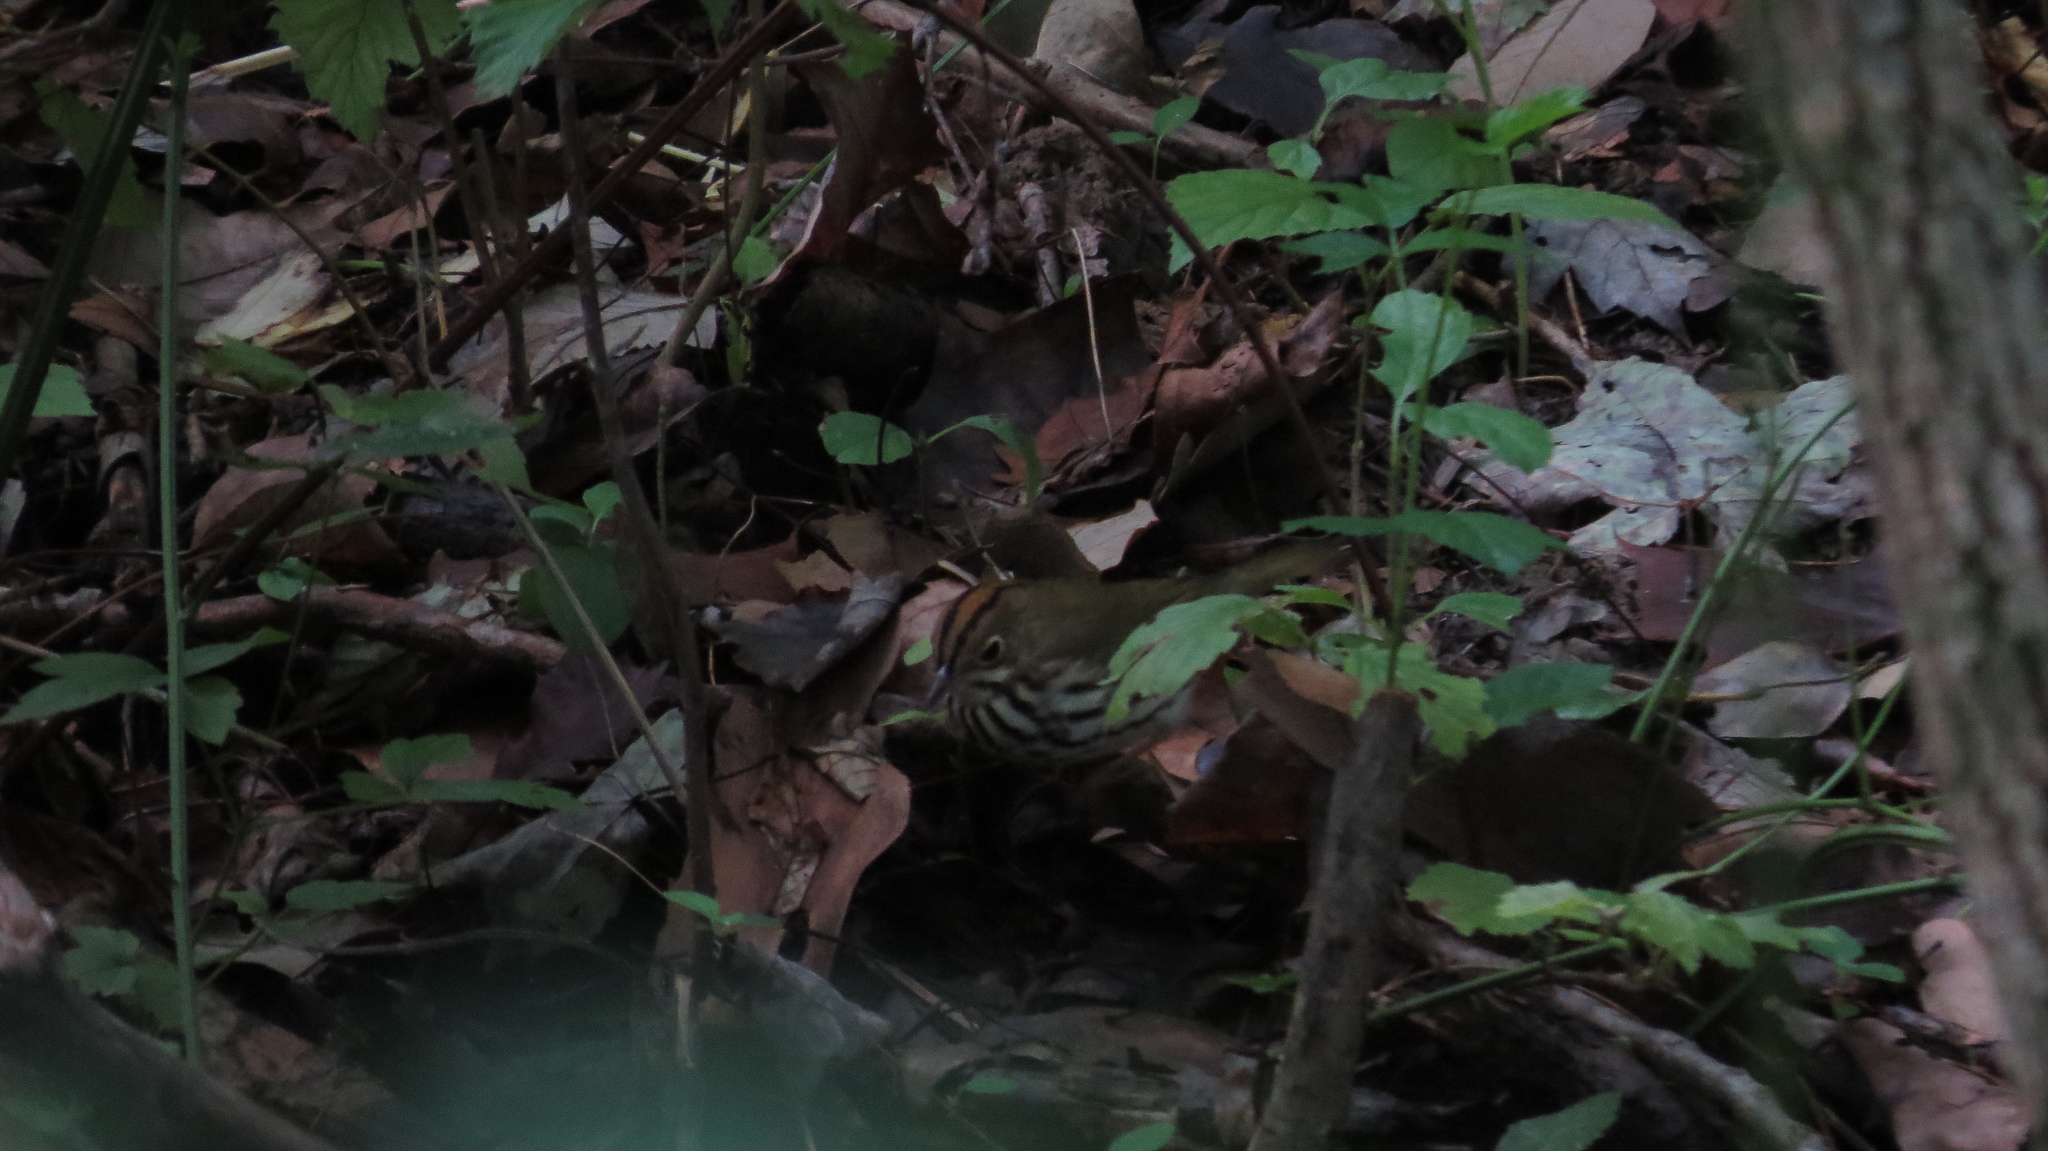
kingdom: Animalia
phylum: Chordata
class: Aves
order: Passeriformes
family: Parulidae
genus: Seiurus
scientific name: Seiurus aurocapilla
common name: Ovenbird
